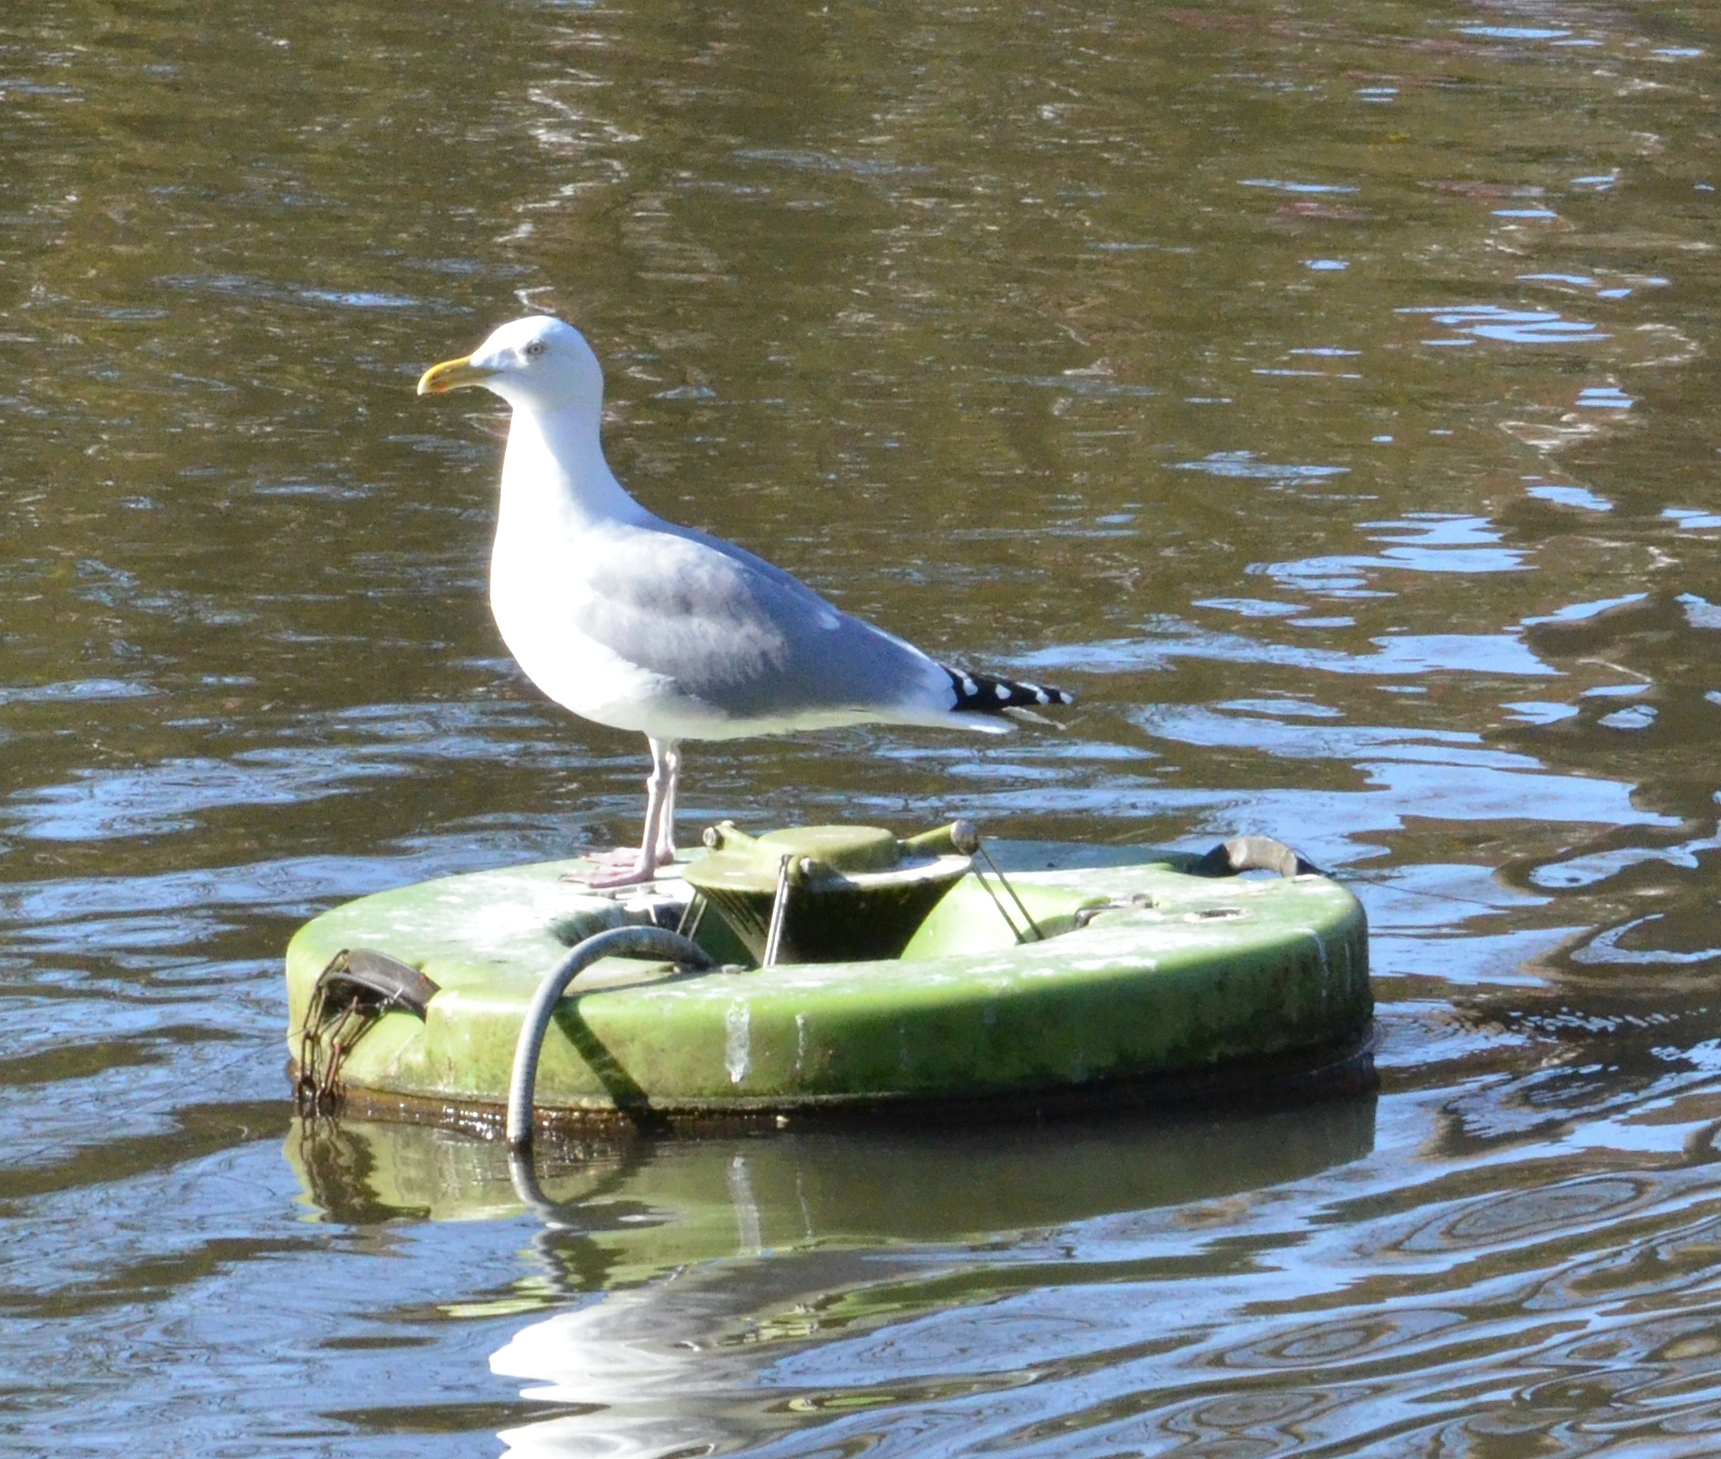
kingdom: Animalia
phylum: Chordata
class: Aves
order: Charadriiformes
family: Laridae
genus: Larus
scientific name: Larus argentatus
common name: Herring gull
